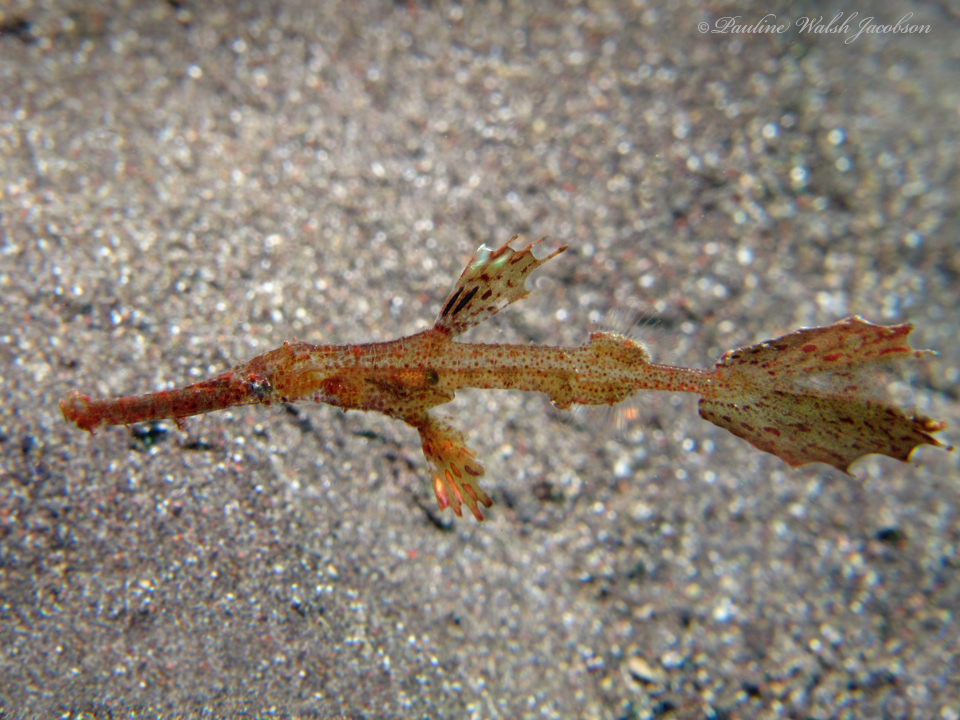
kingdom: Animalia
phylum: Chordata
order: Syngnathiformes
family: Solenostomidae
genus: Solenostomus
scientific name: Solenostomus cyanopterus
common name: Blue-finned ghost pipefish
